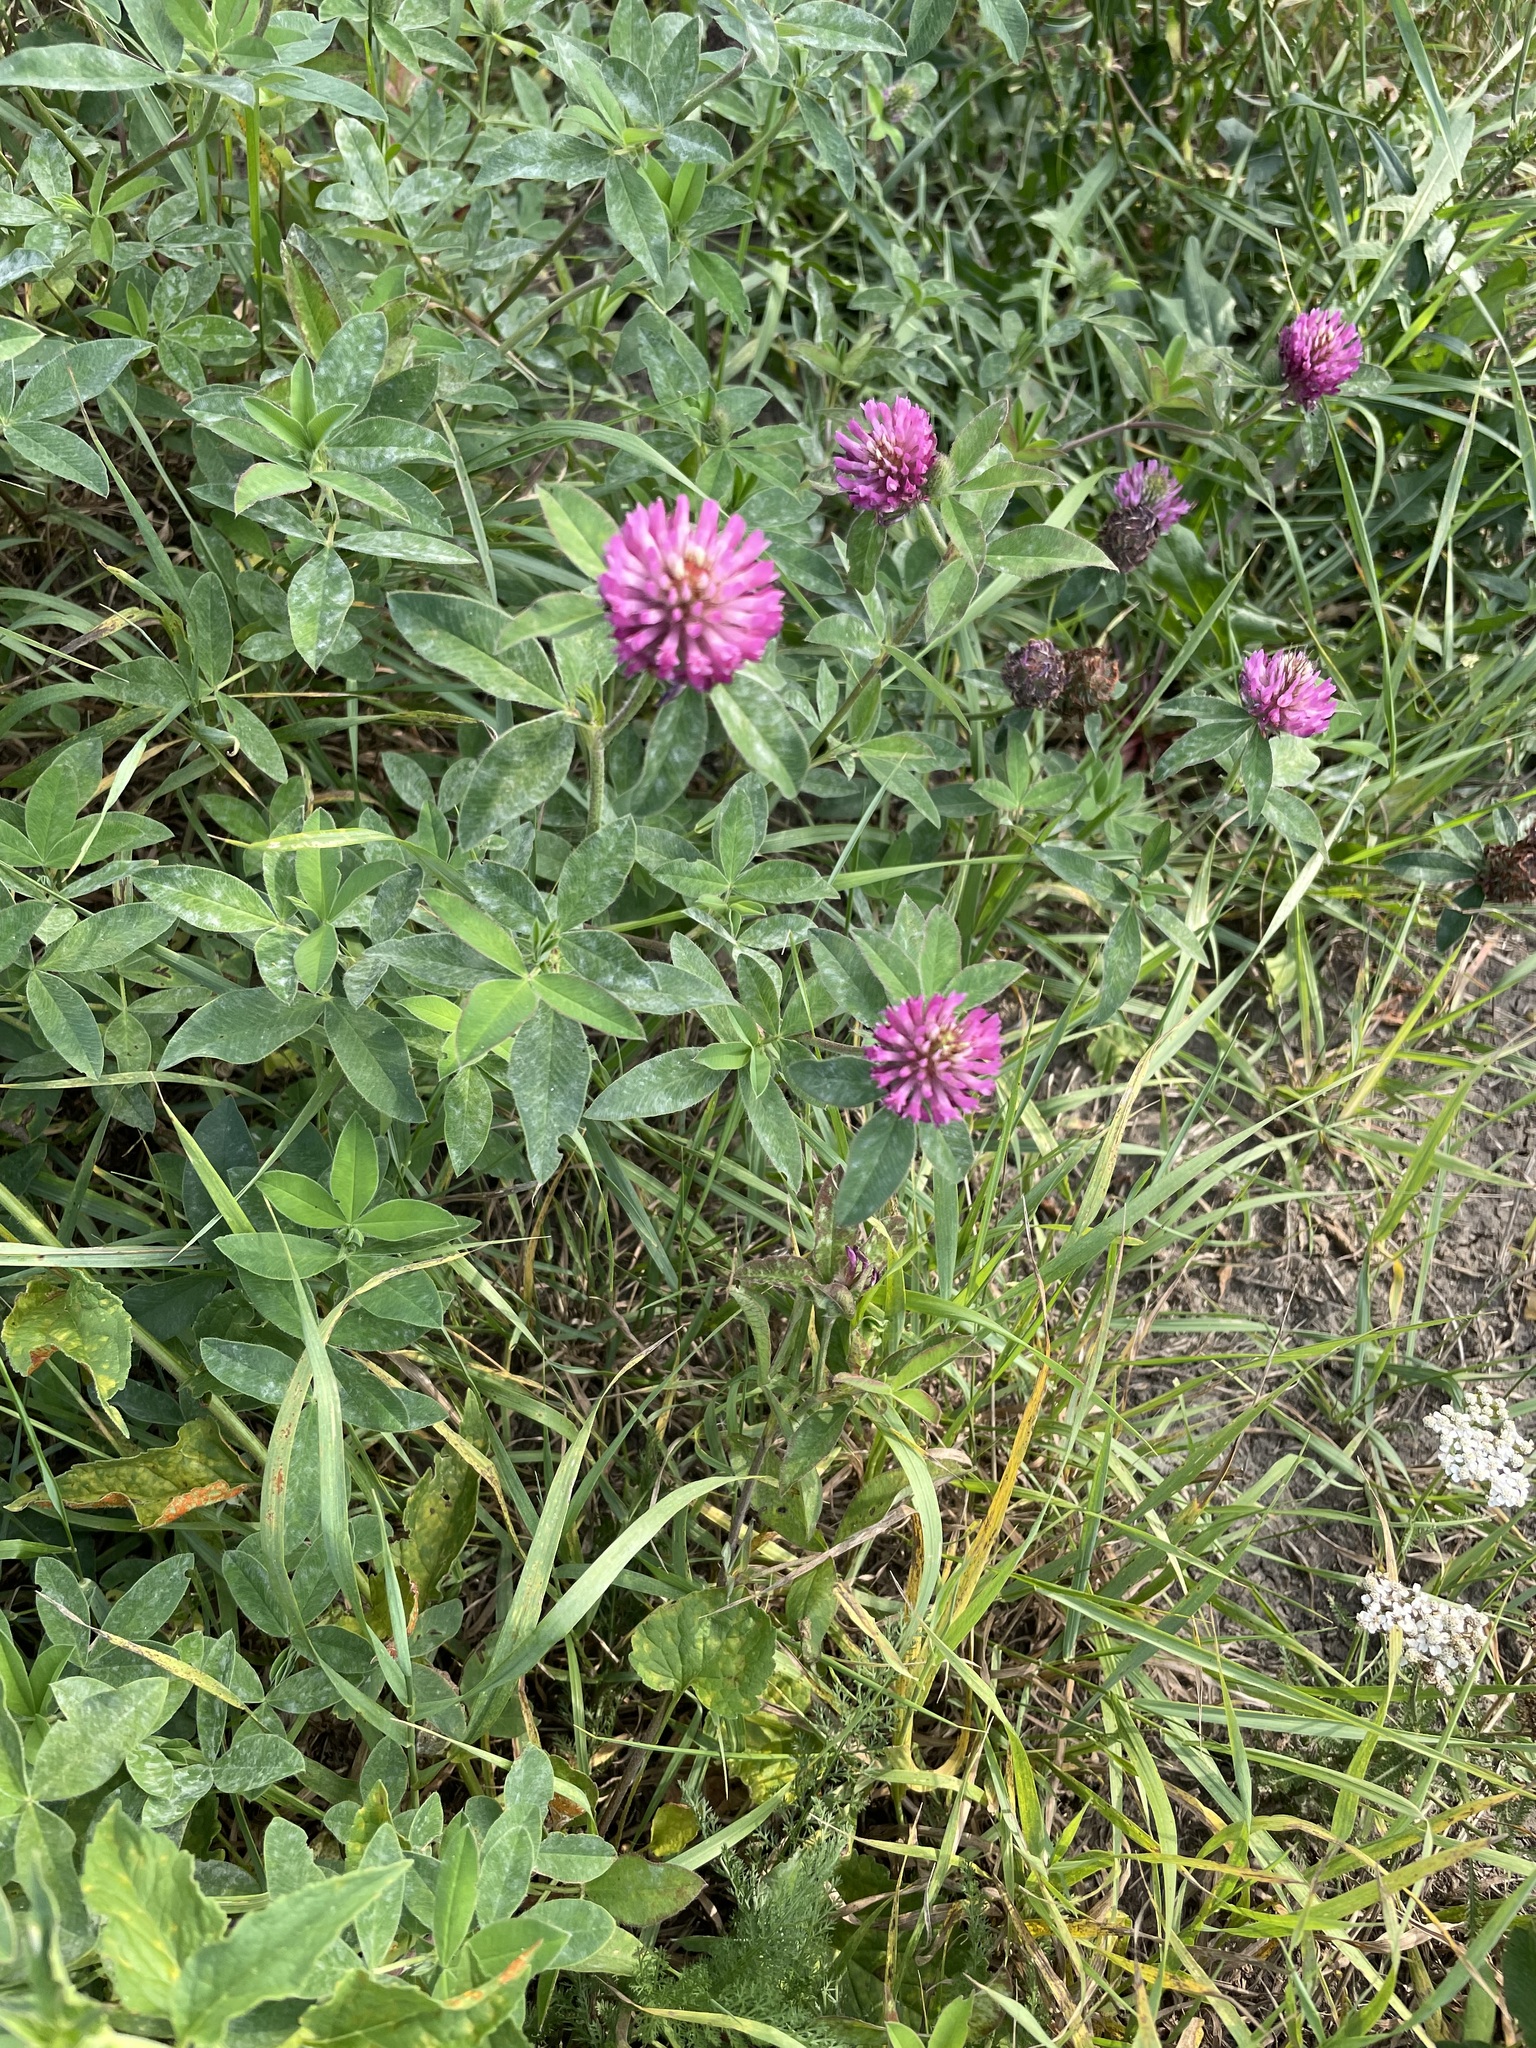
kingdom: Plantae
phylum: Tracheophyta
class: Magnoliopsida
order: Fabales
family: Fabaceae
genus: Trifolium
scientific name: Trifolium medium
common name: Zigzag clover
